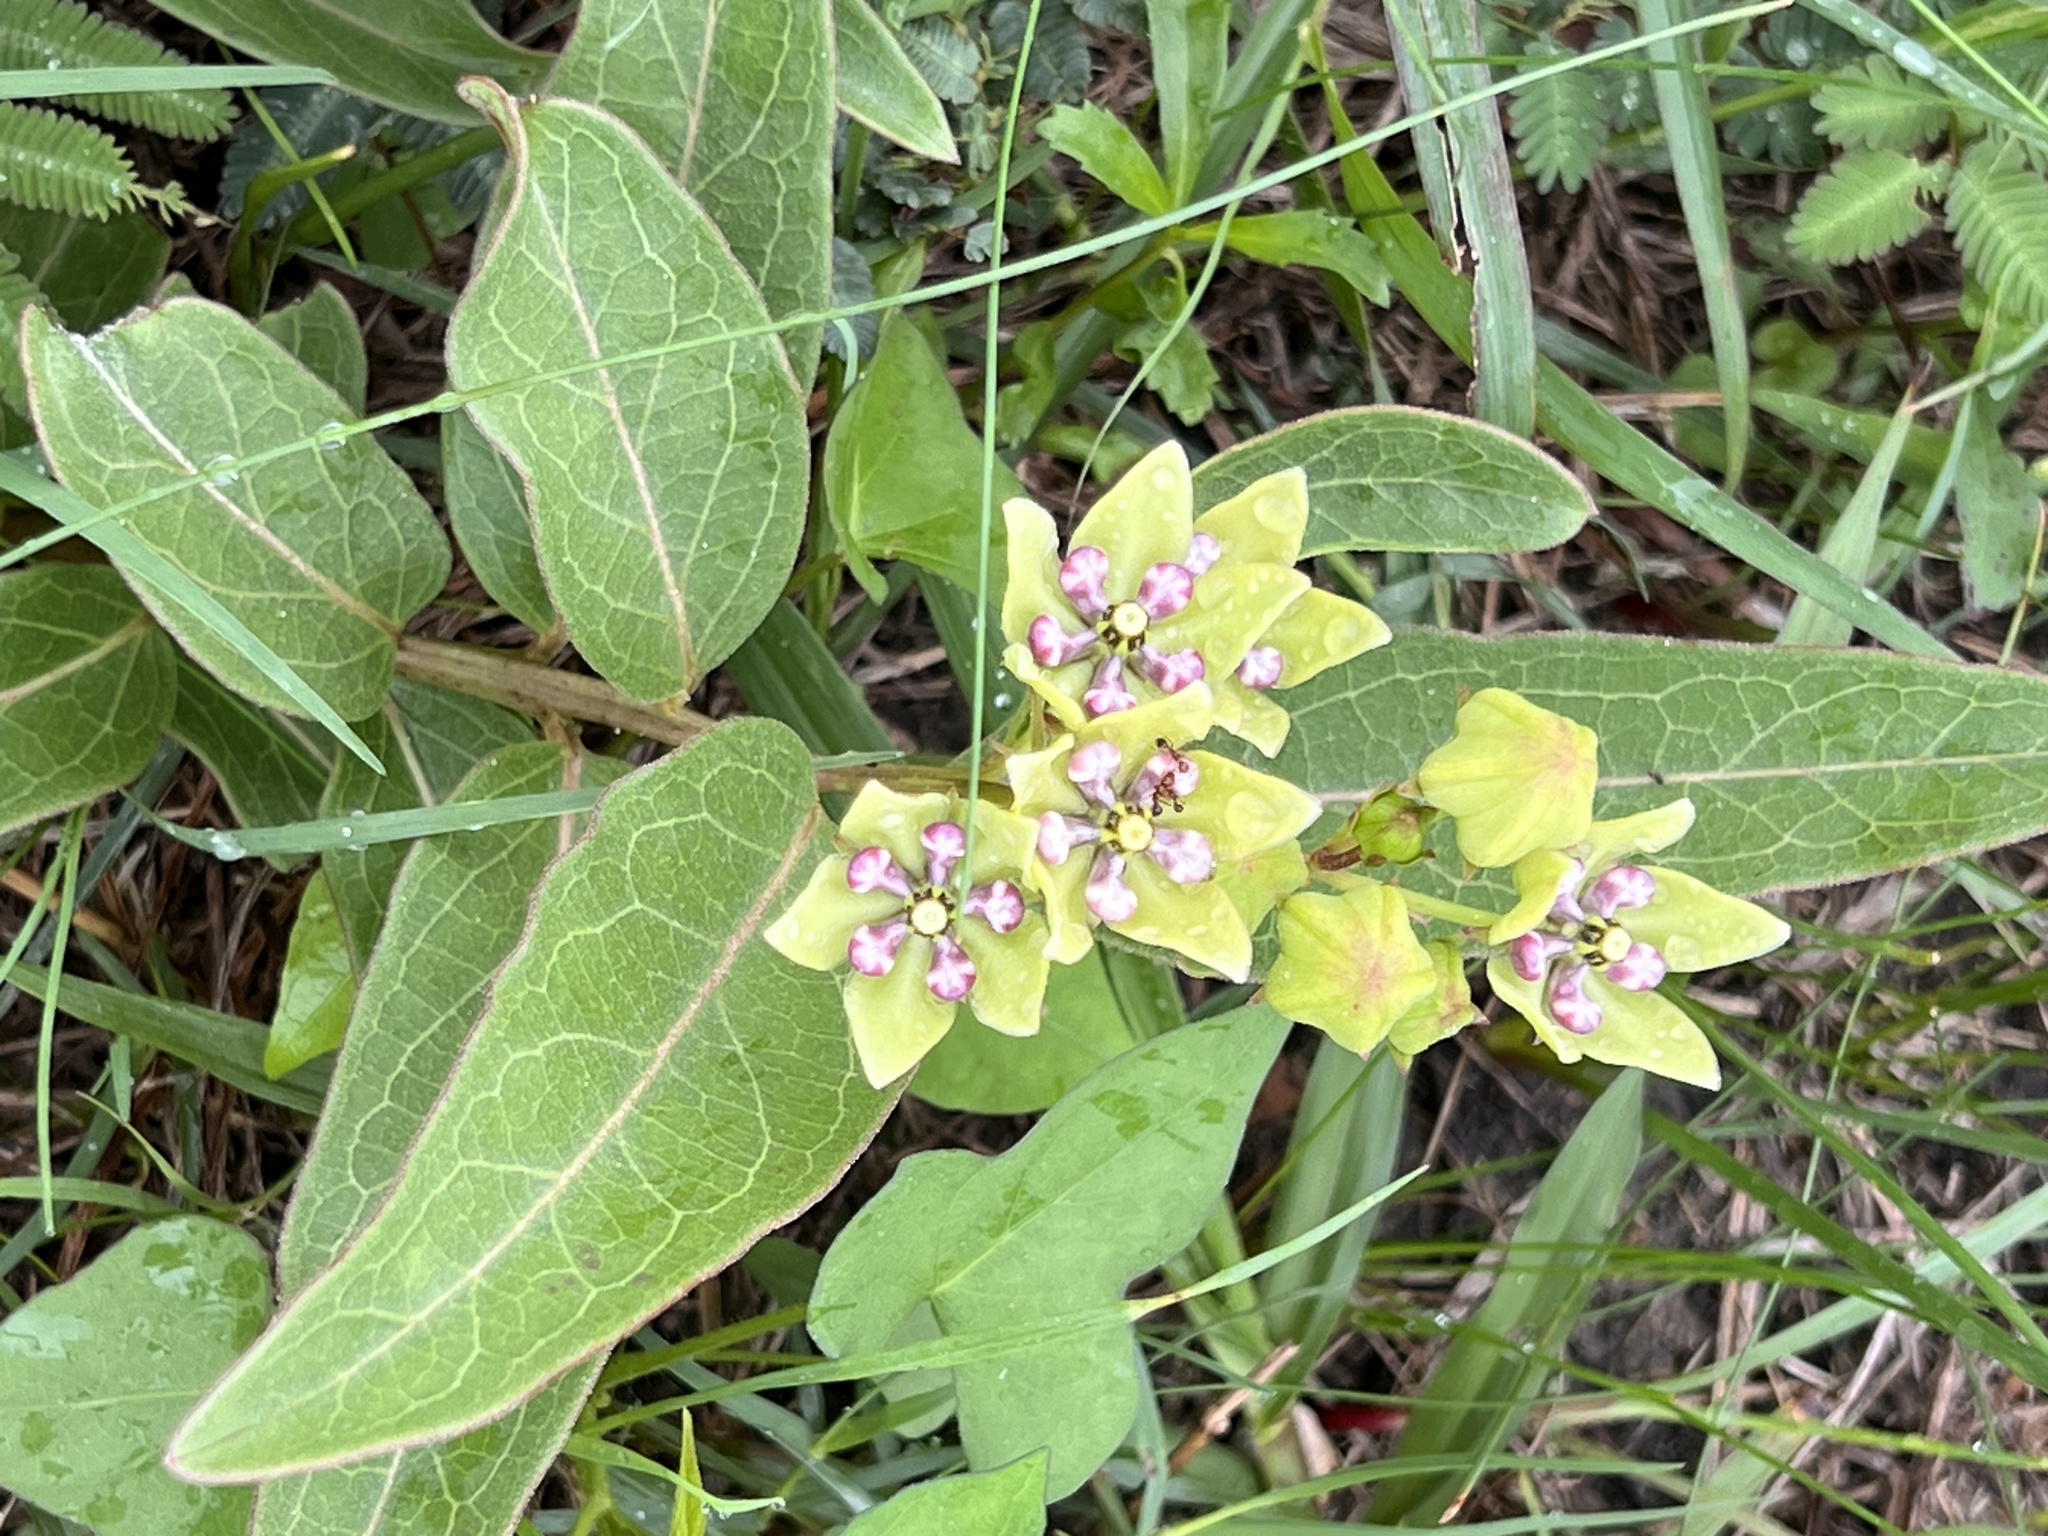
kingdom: Plantae
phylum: Tracheophyta
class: Magnoliopsida
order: Gentianales
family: Apocynaceae
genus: Asclepias
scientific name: Asclepias viridis
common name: Antelope-horns
